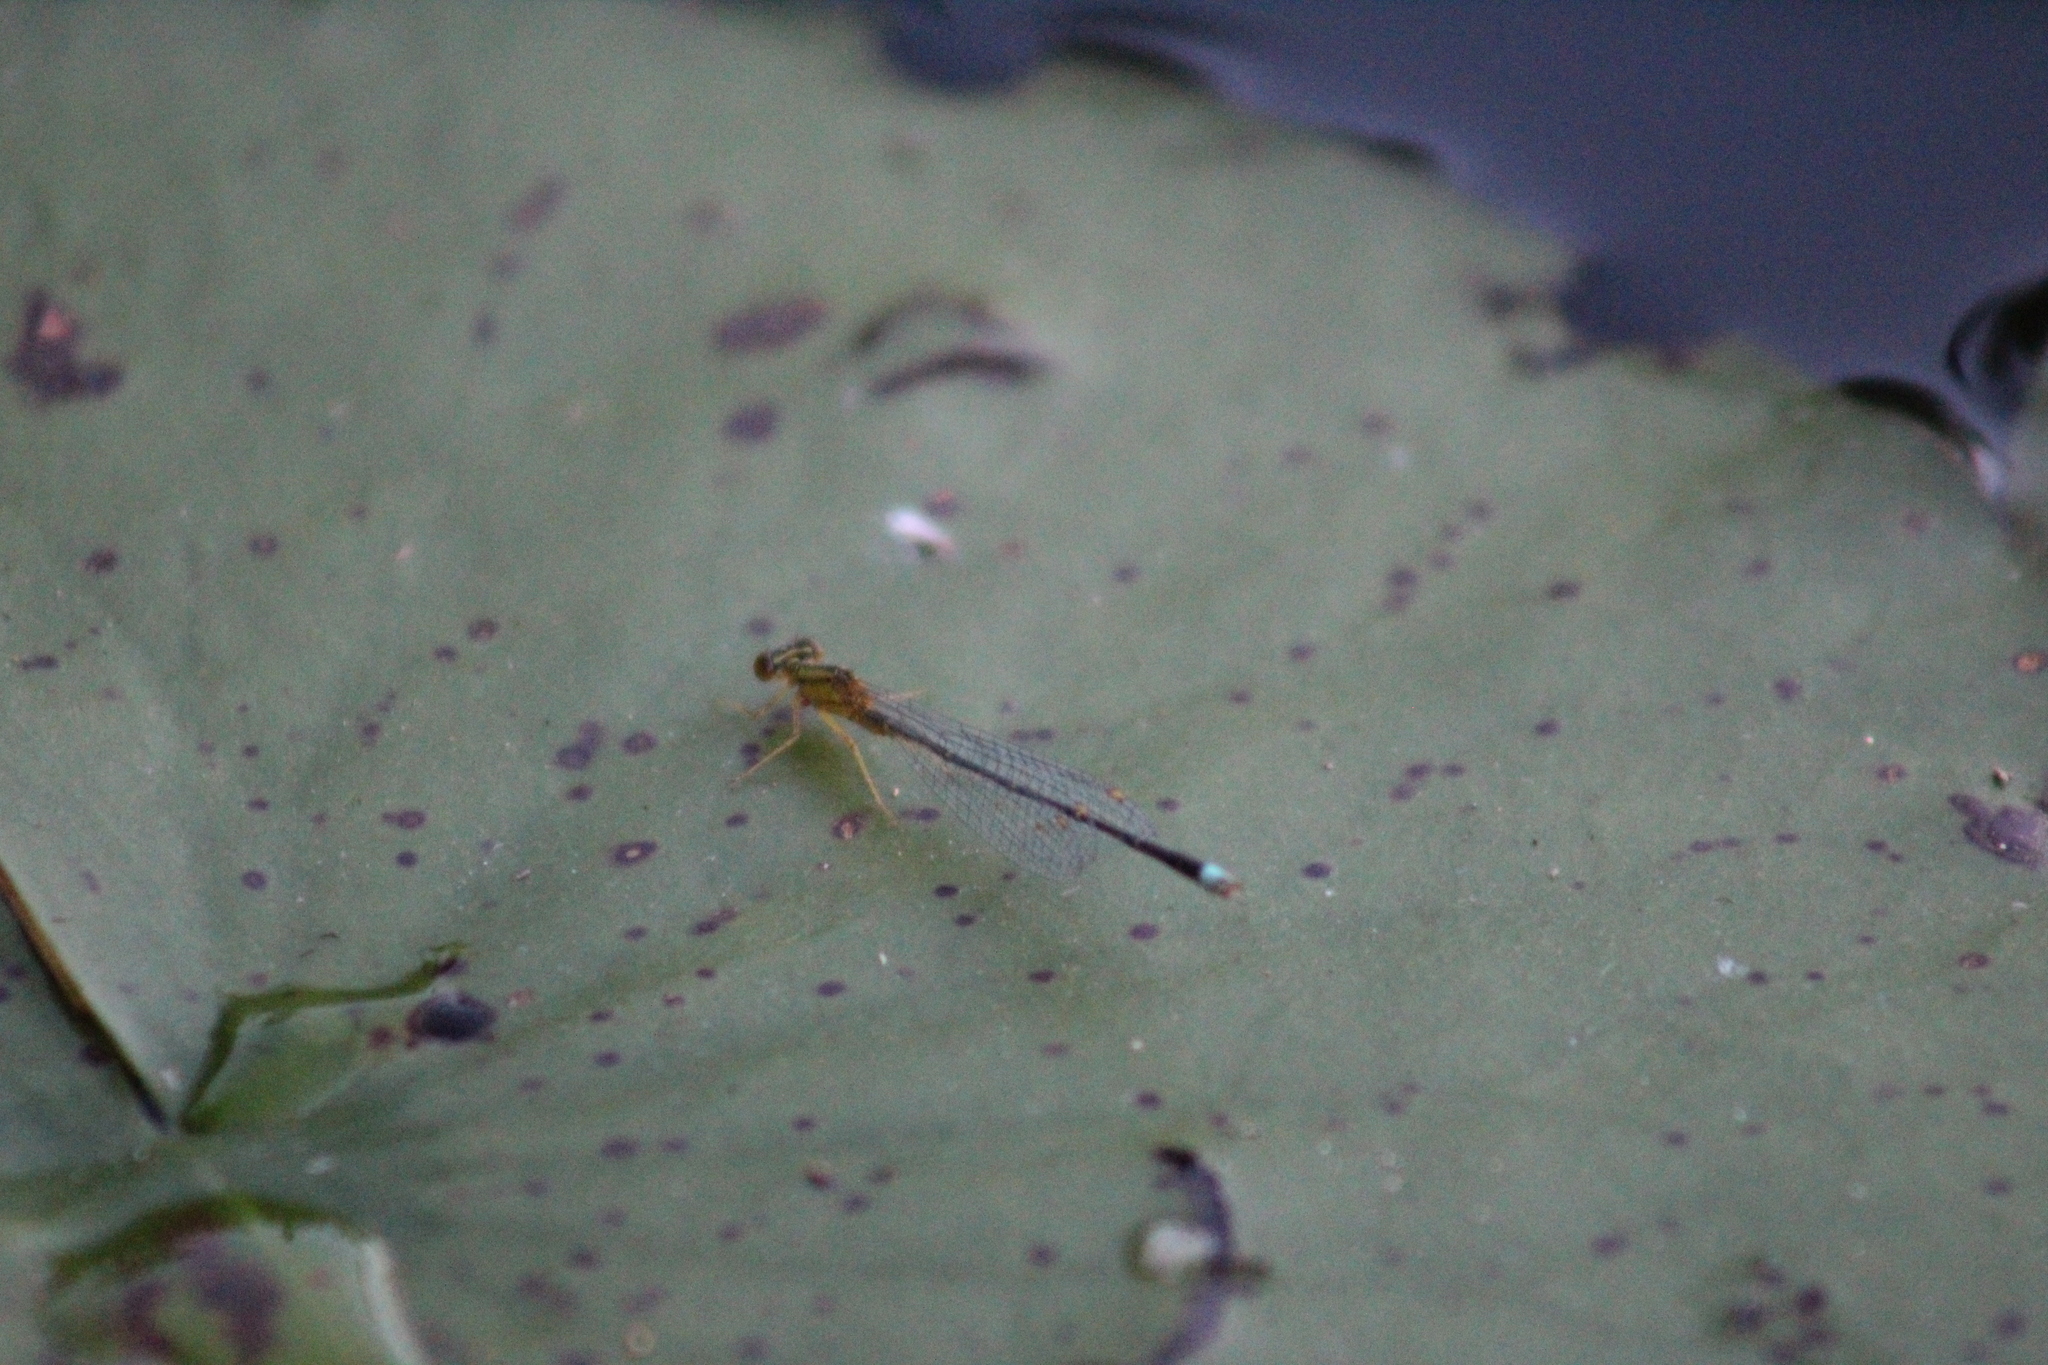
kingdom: Animalia
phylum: Arthropoda
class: Insecta
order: Odonata
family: Coenagrionidae
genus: Enallagma
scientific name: Enallagma vesperum
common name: Vesper bluet
